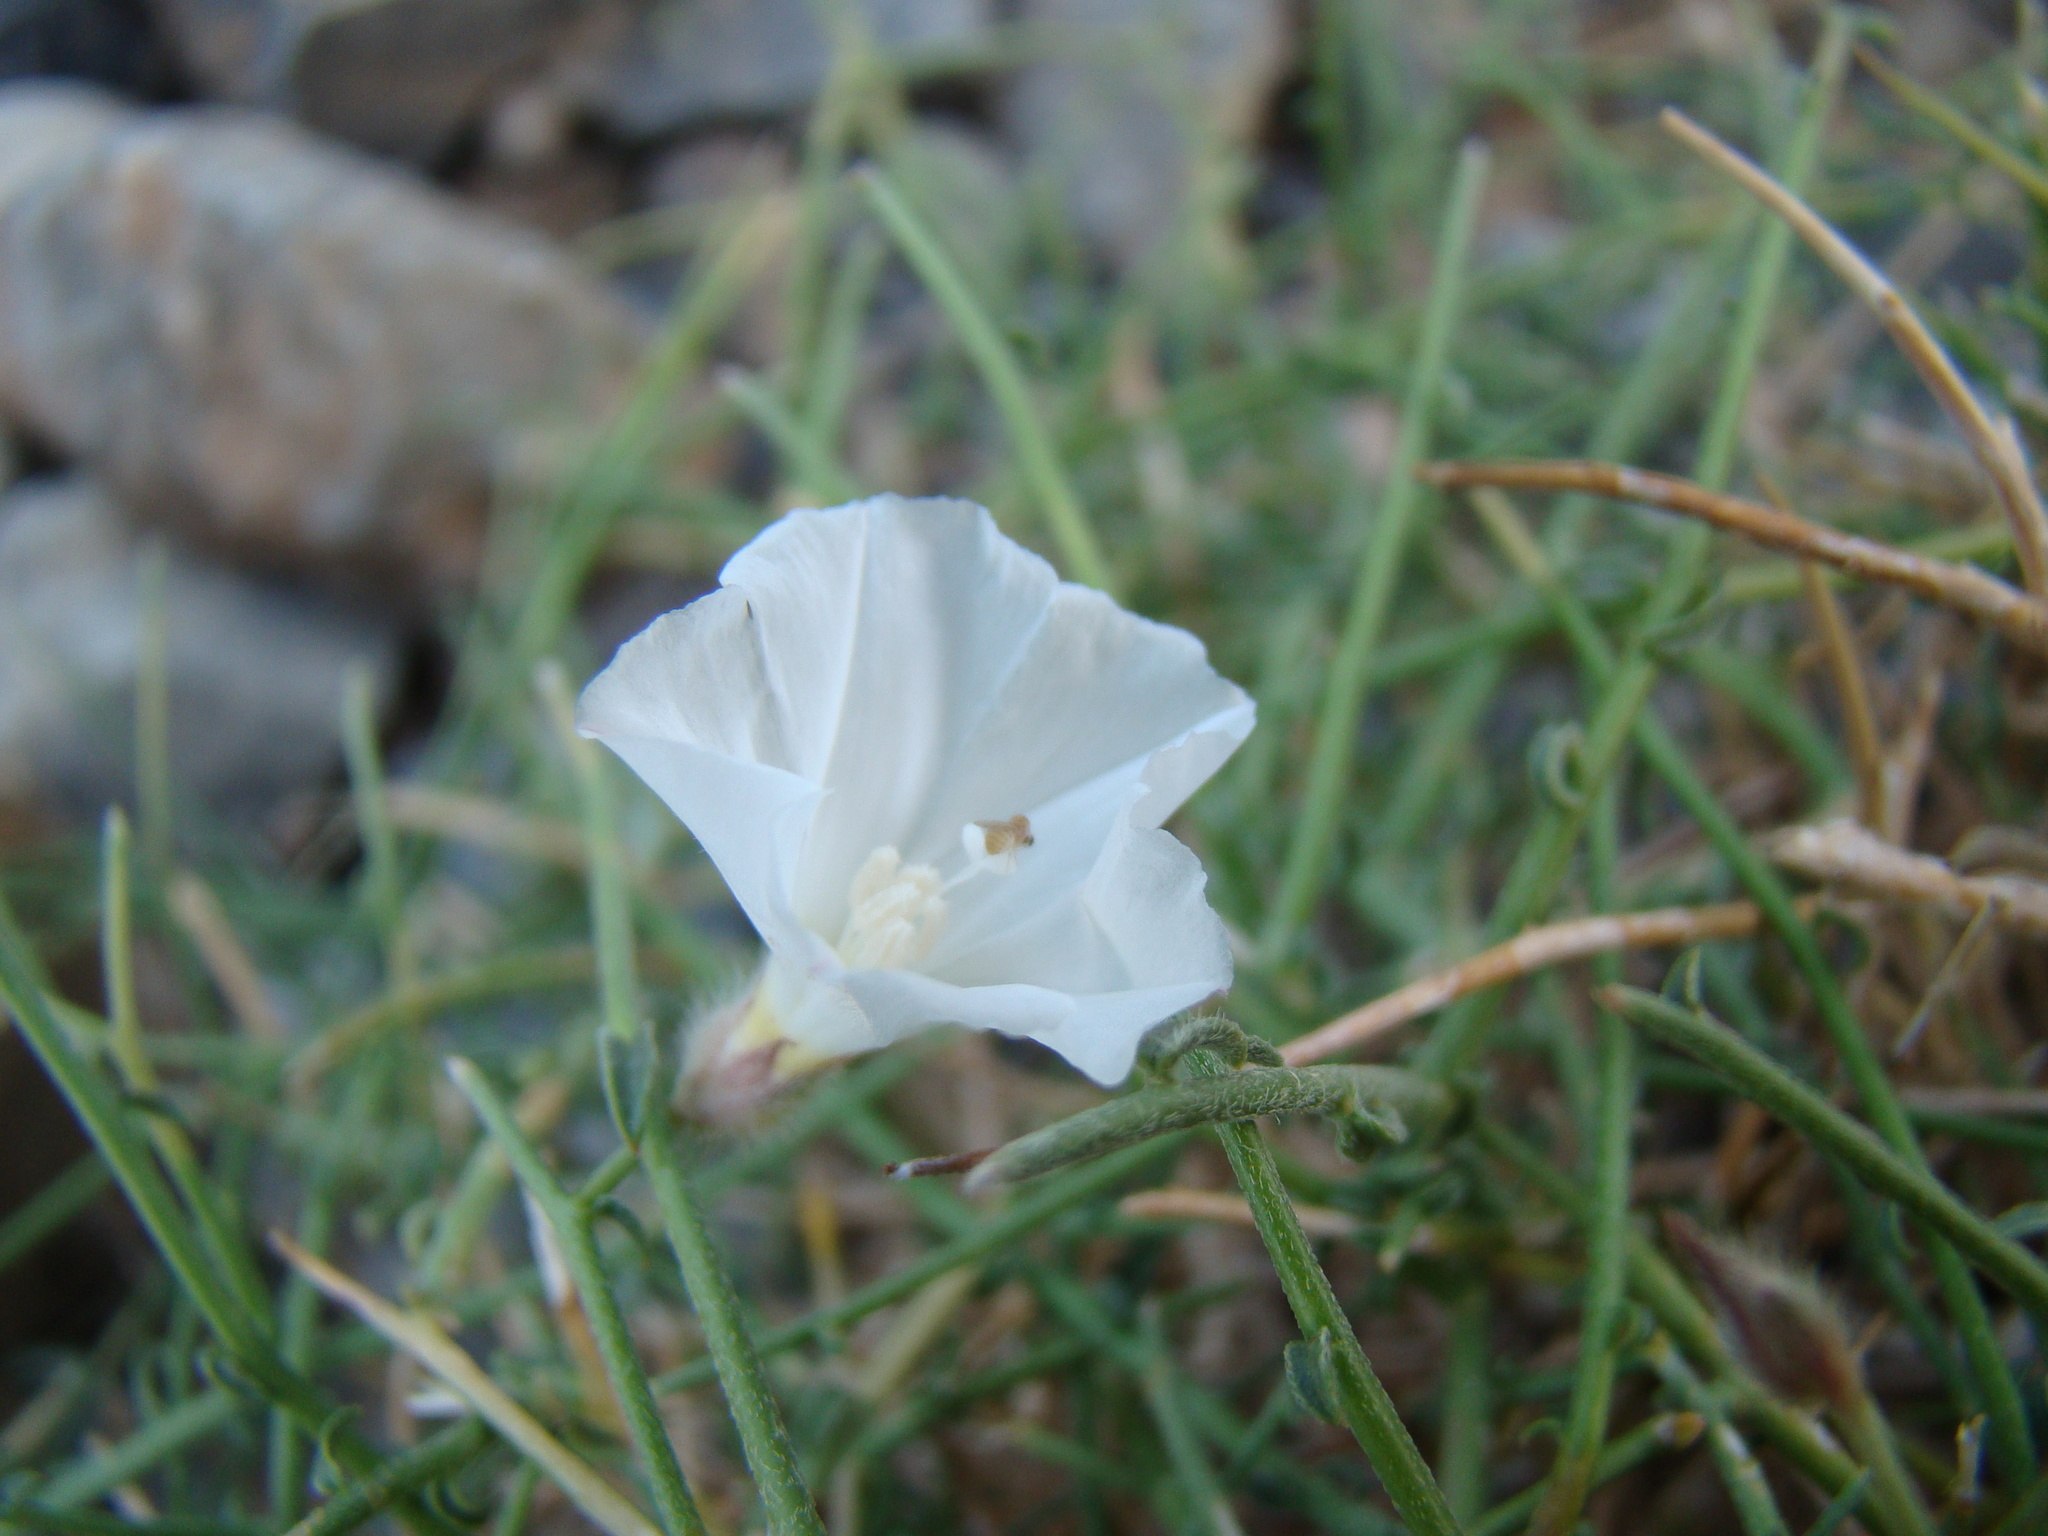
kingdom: Plantae
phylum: Tracheophyta
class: Magnoliopsida
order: Solanales
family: Convolvulaceae
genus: Convolvulus
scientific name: Convolvulus virgatus
